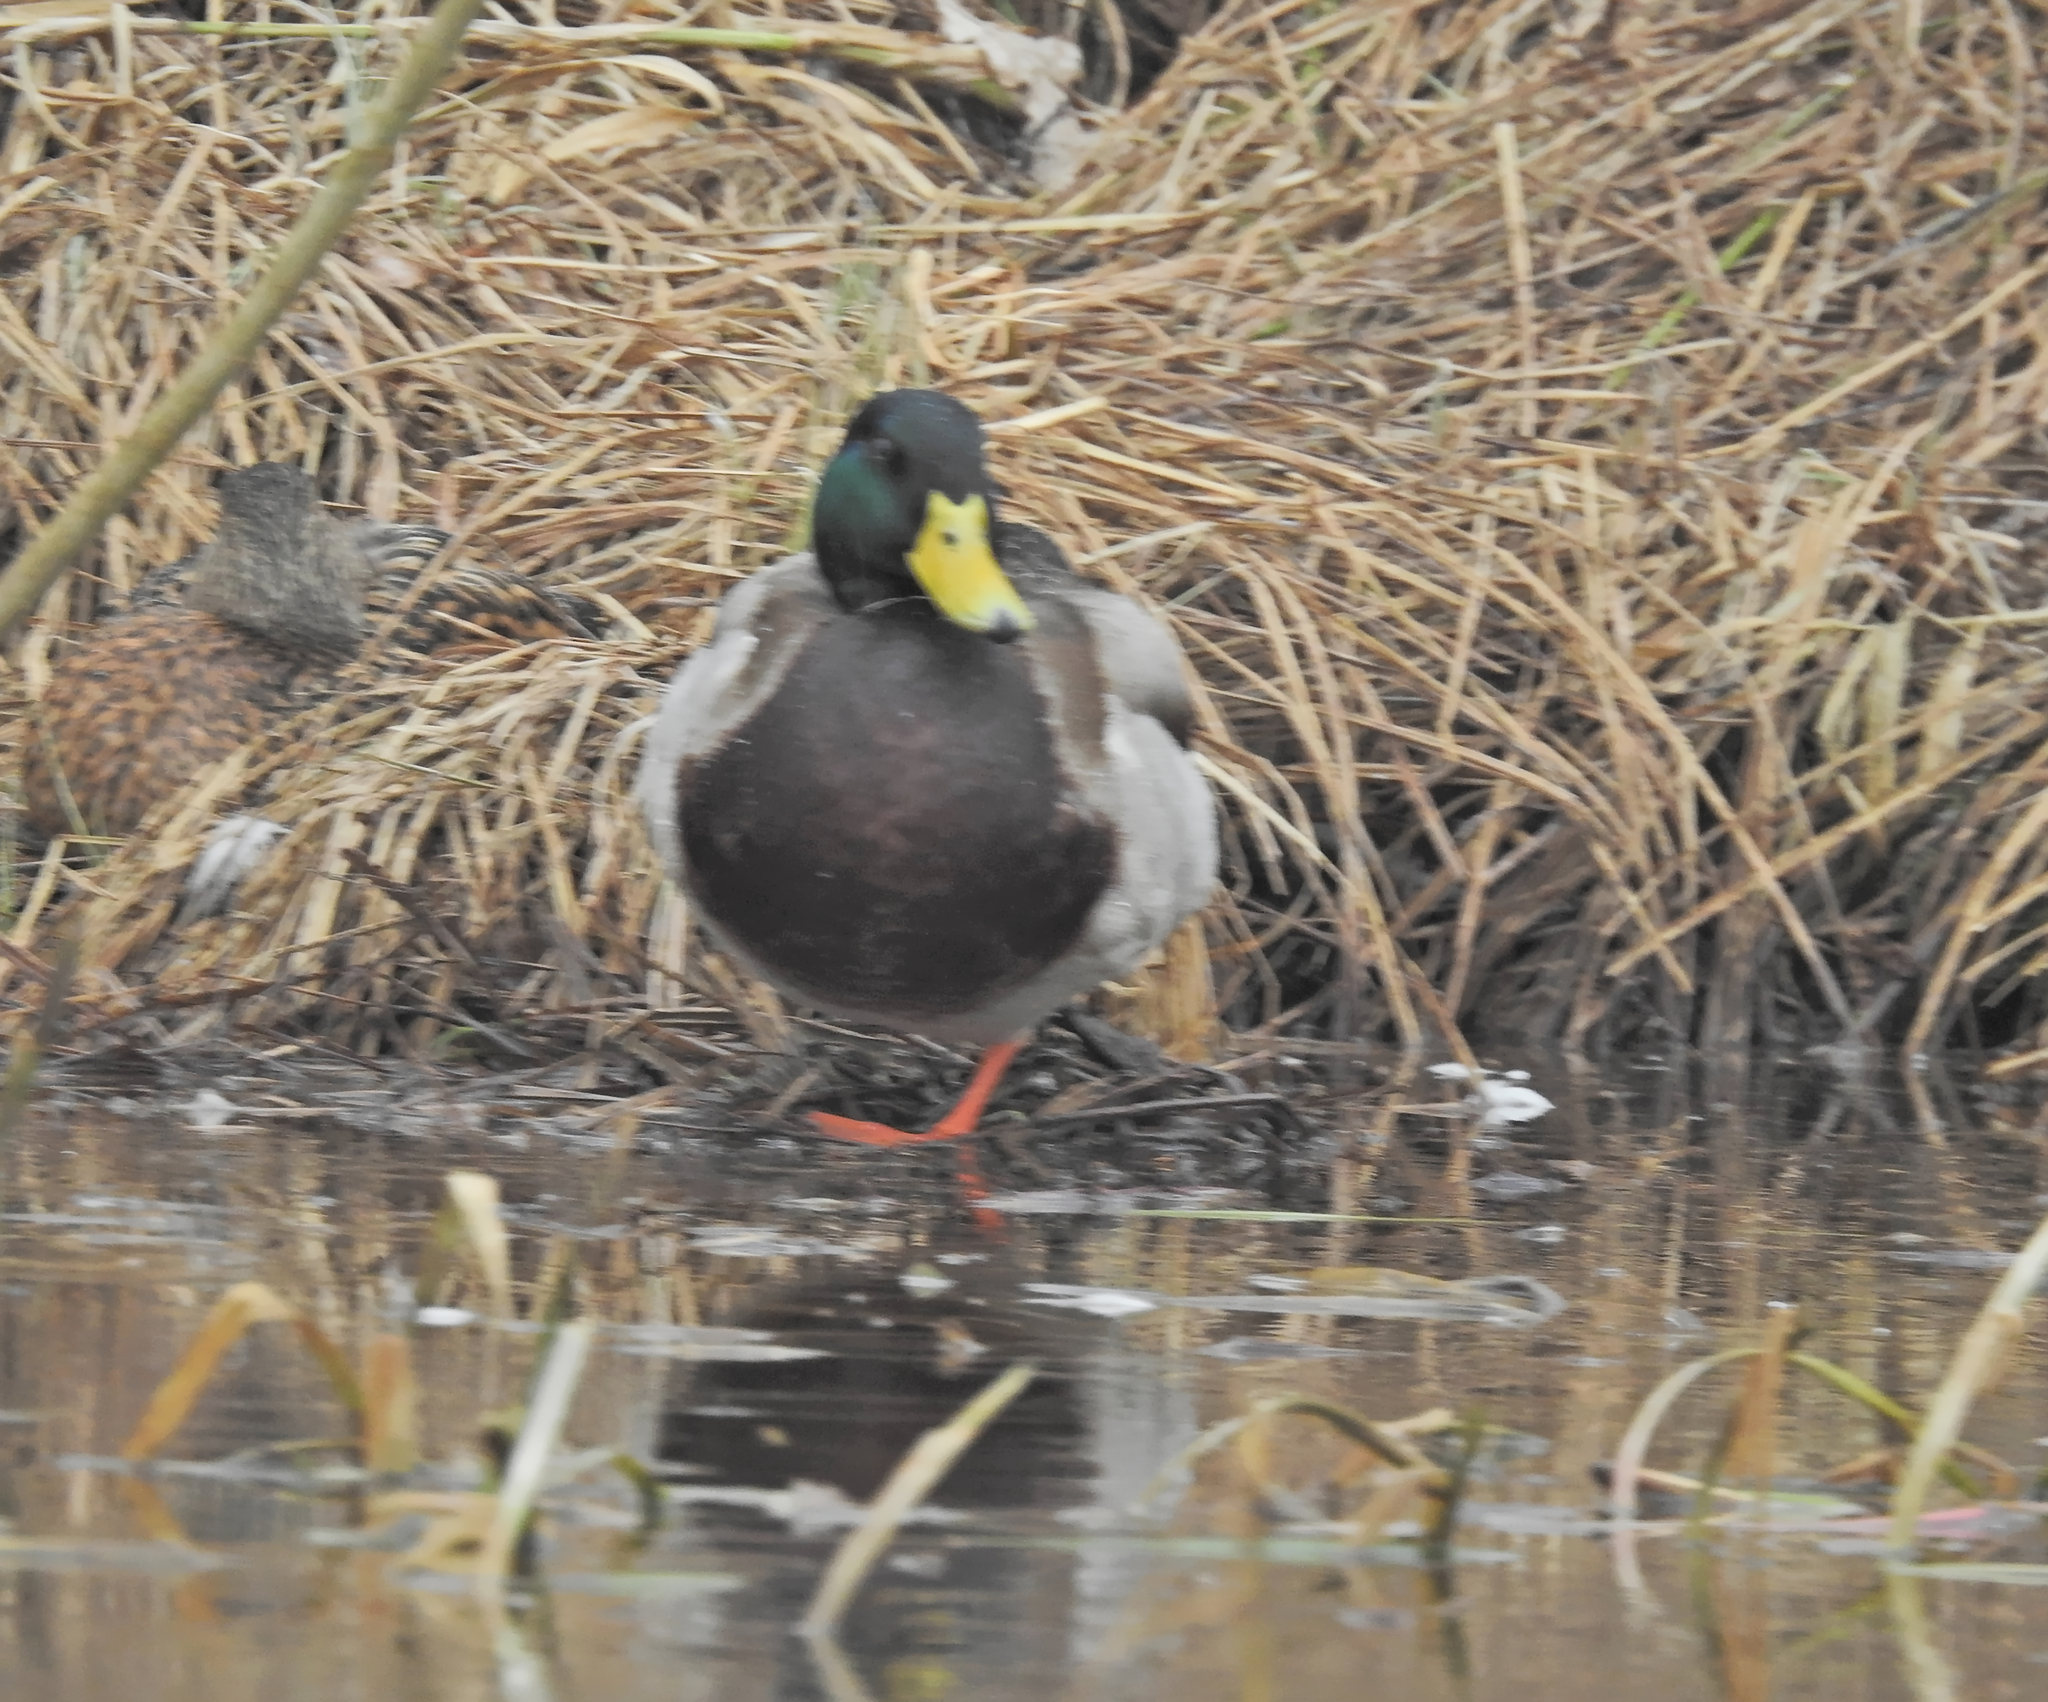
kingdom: Animalia
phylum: Chordata
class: Aves
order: Anseriformes
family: Anatidae
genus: Anas
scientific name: Anas platyrhynchos
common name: Mallard
